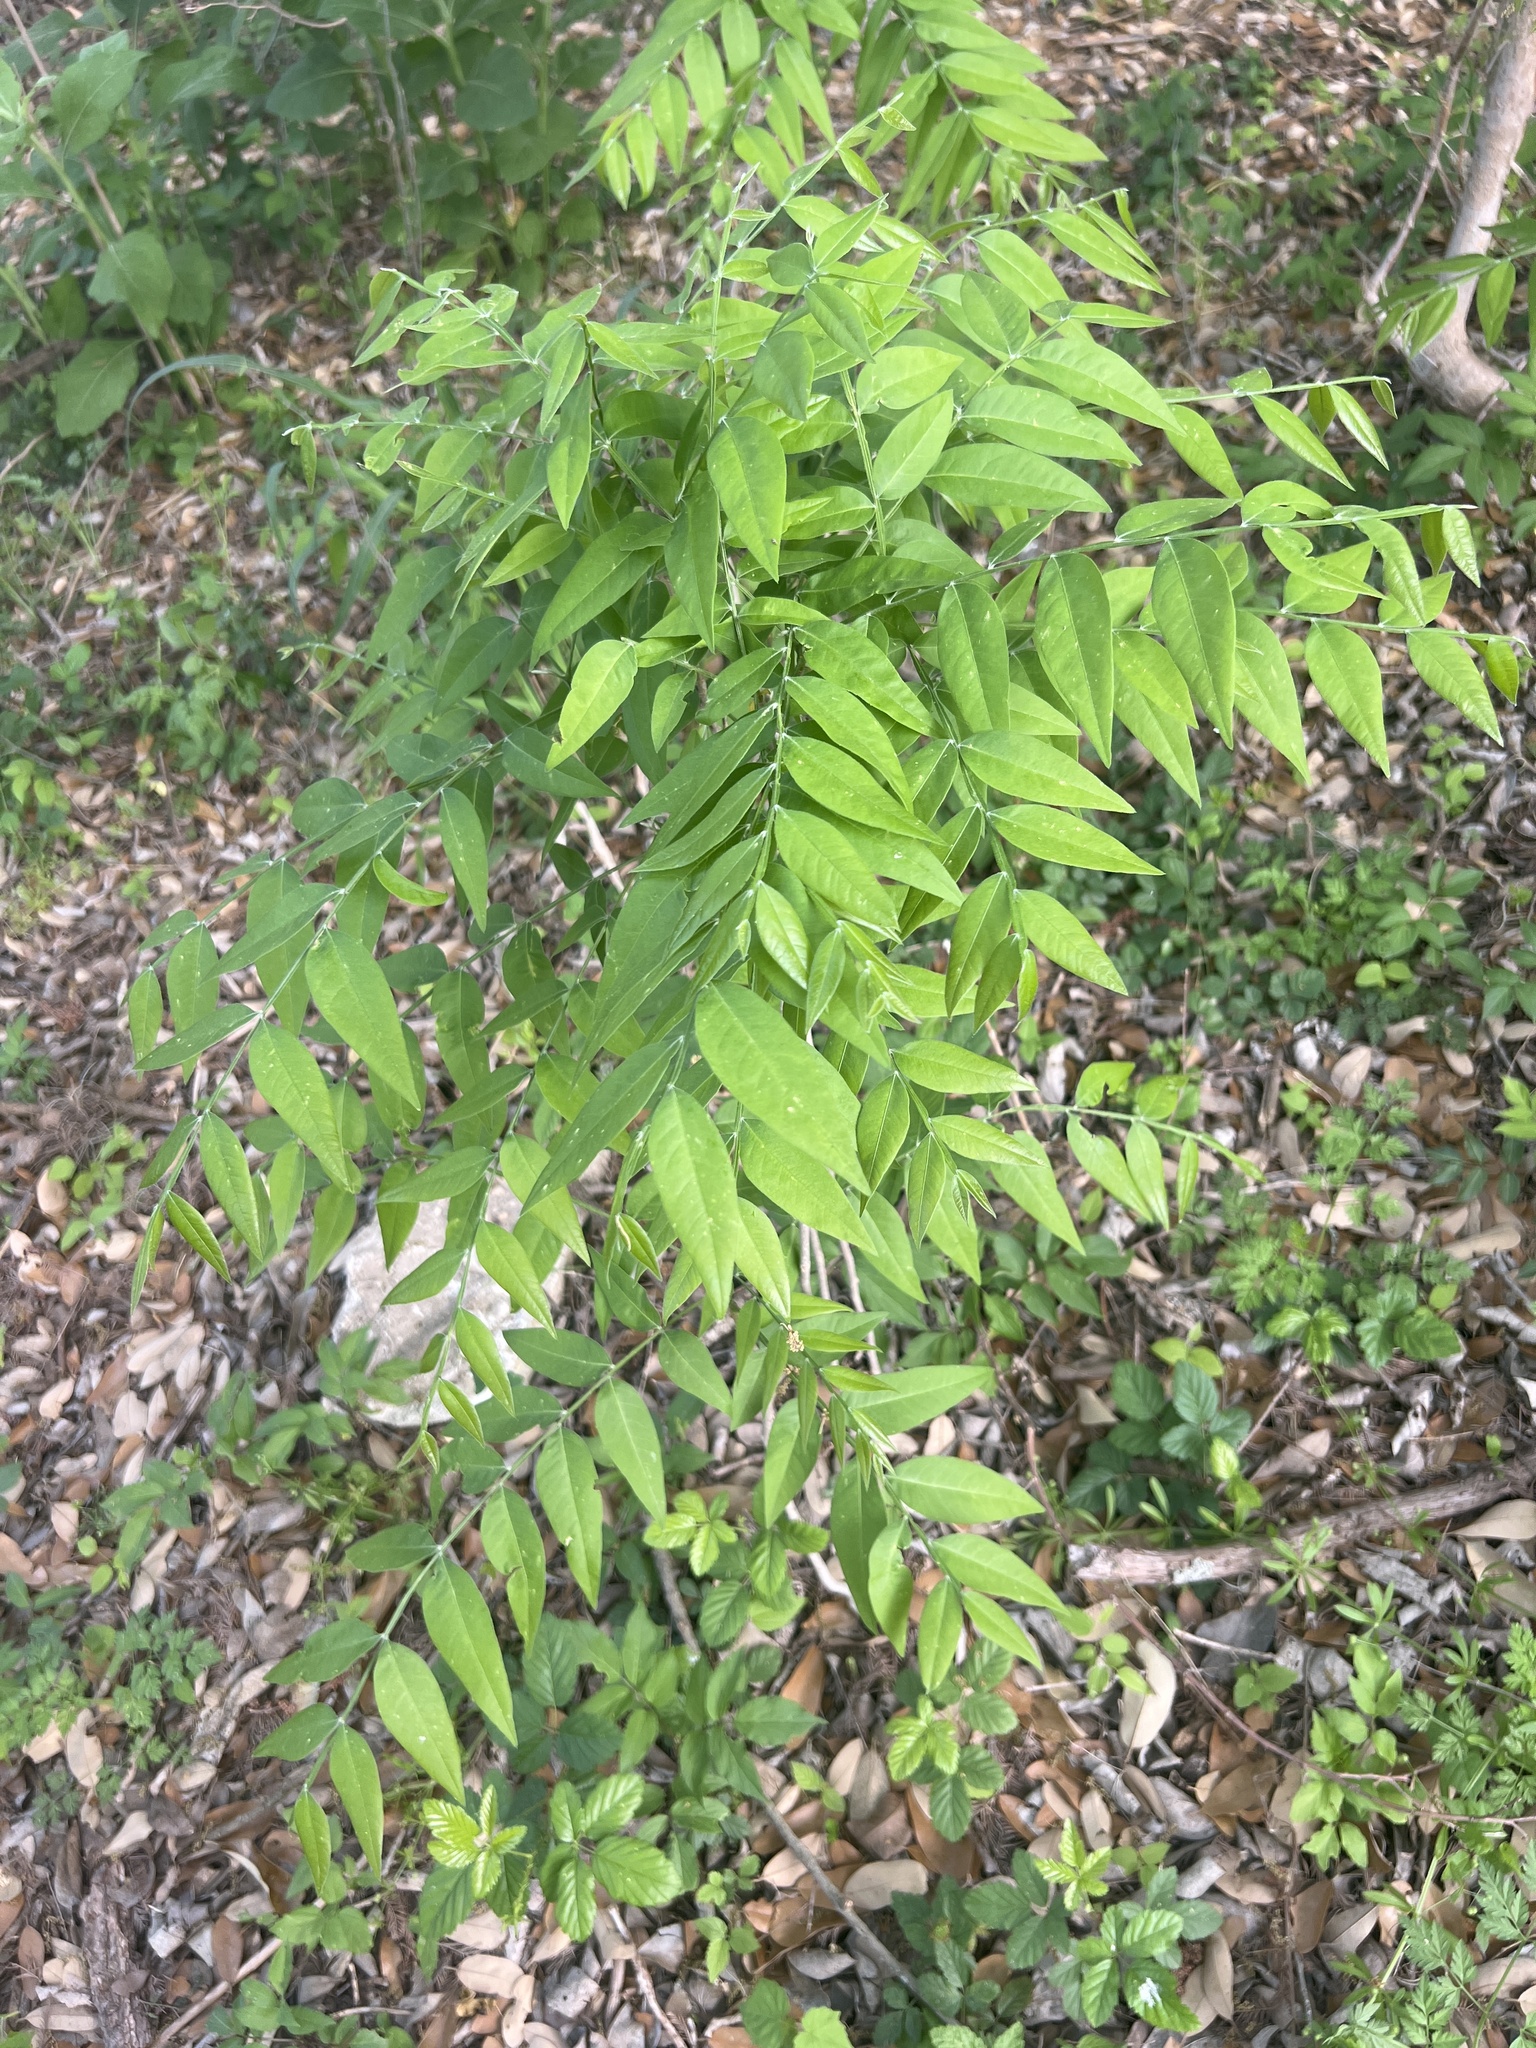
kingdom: Plantae
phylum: Tracheophyta
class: Magnoliopsida
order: Sapindales
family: Sapindaceae
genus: Sapindus
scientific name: Sapindus drummondii
